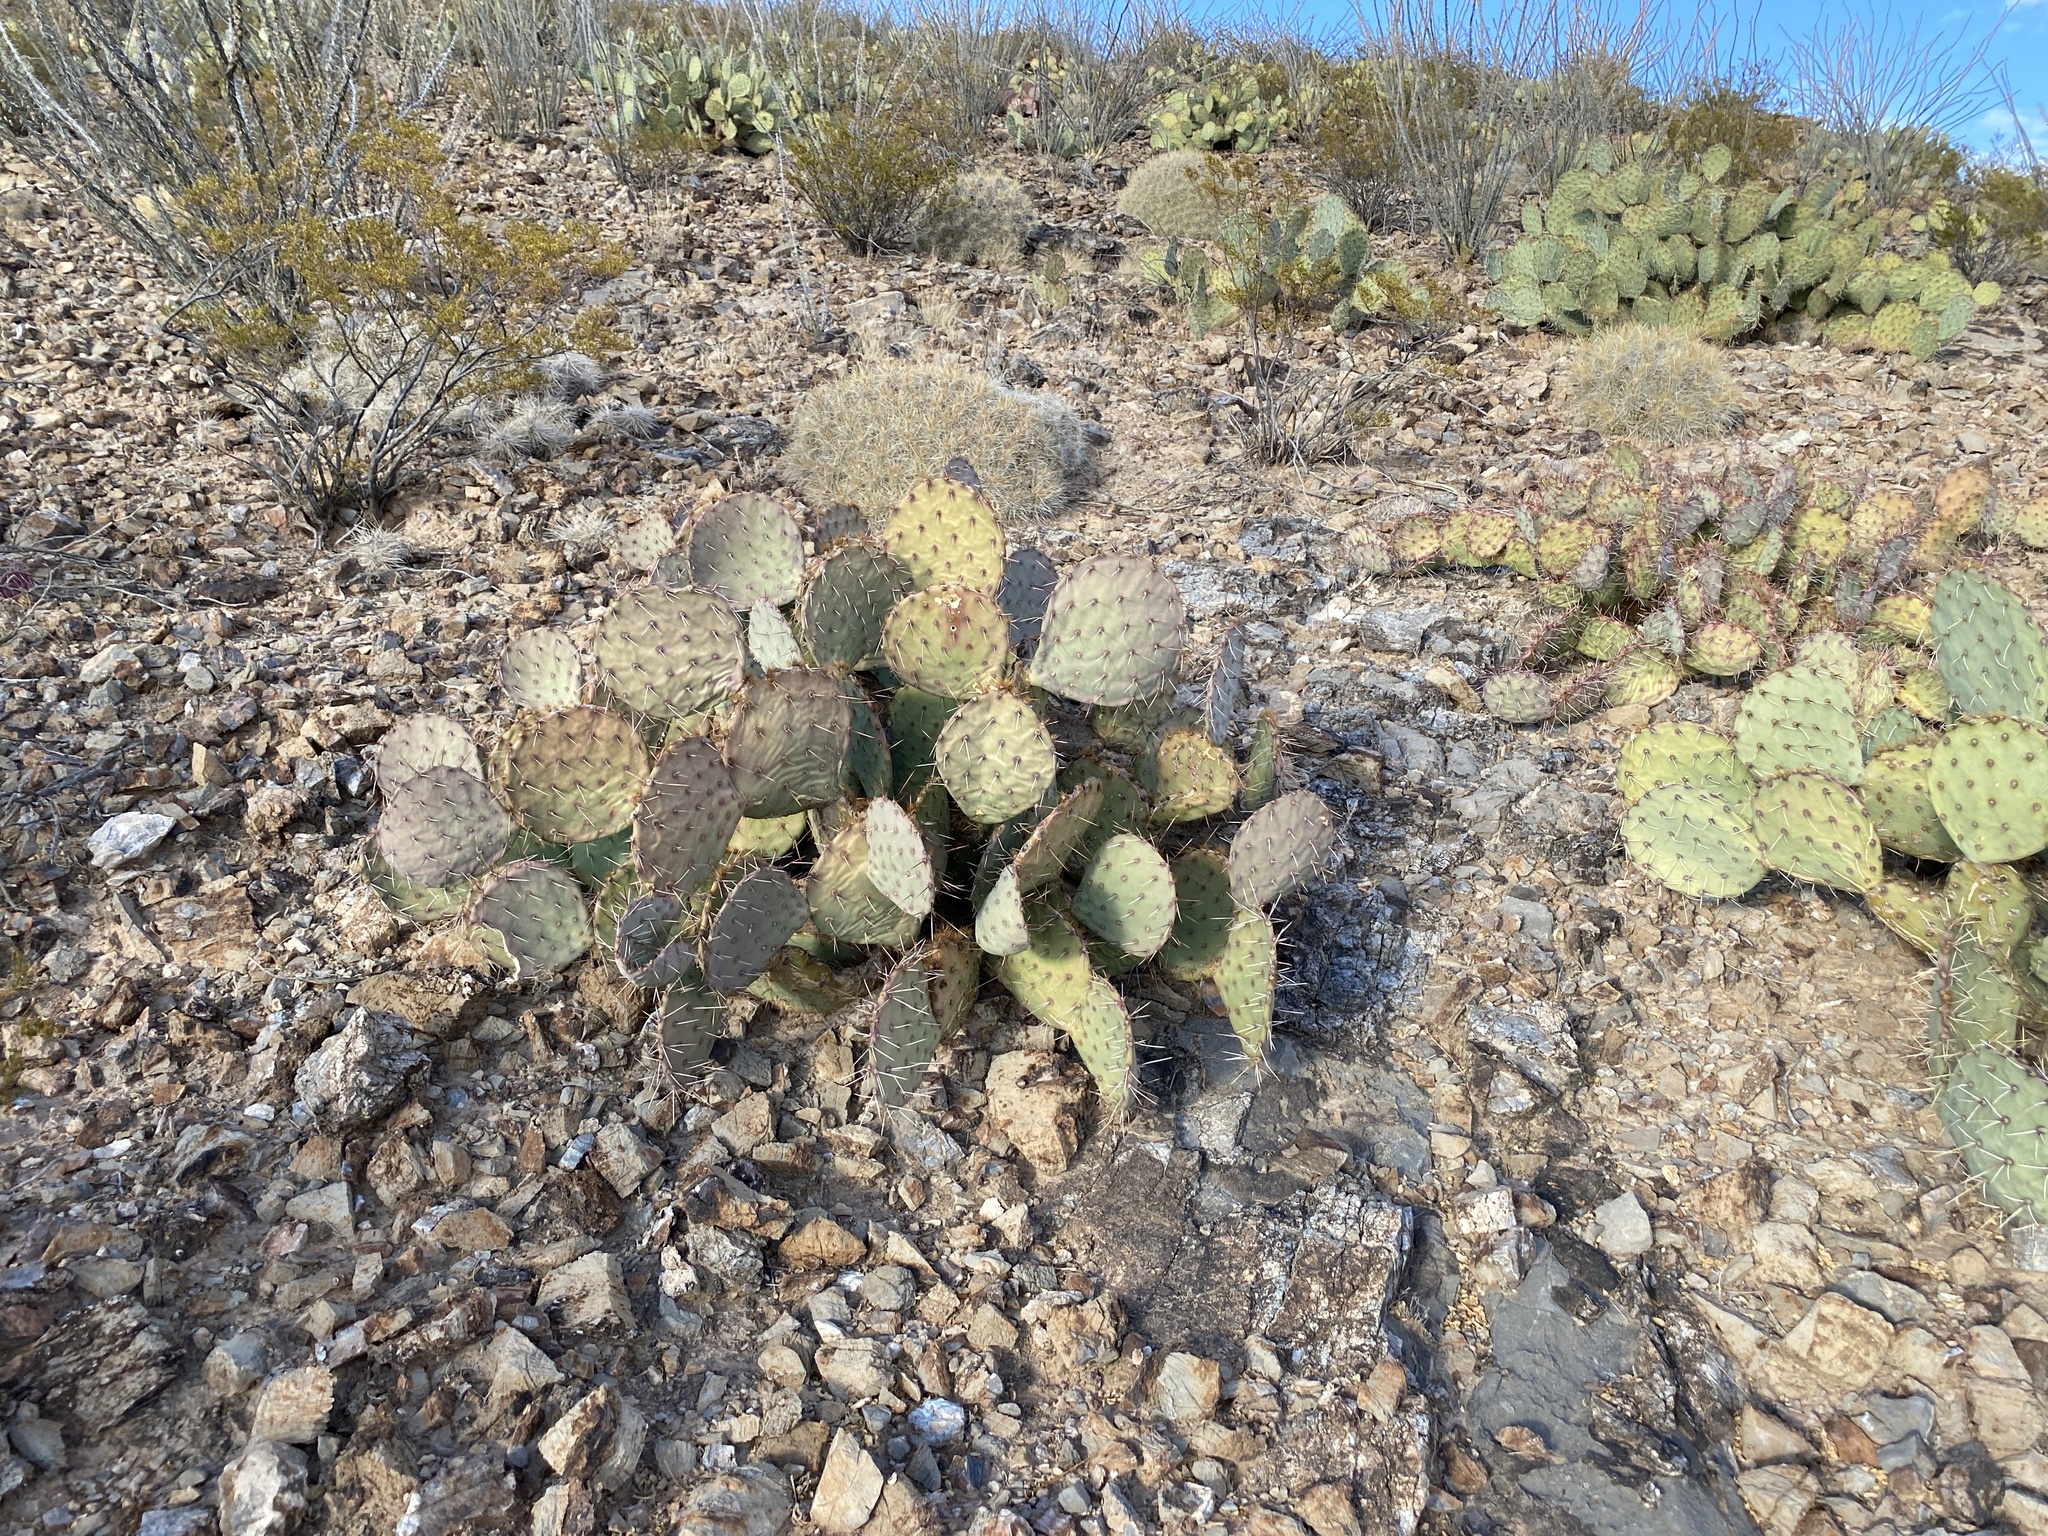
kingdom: Plantae
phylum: Tracheophyta
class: Magnoliopsida
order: Caryophyllales
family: Cactaceae
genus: Opuntia
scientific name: Opuntia engelmannii
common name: Cactus-apple
